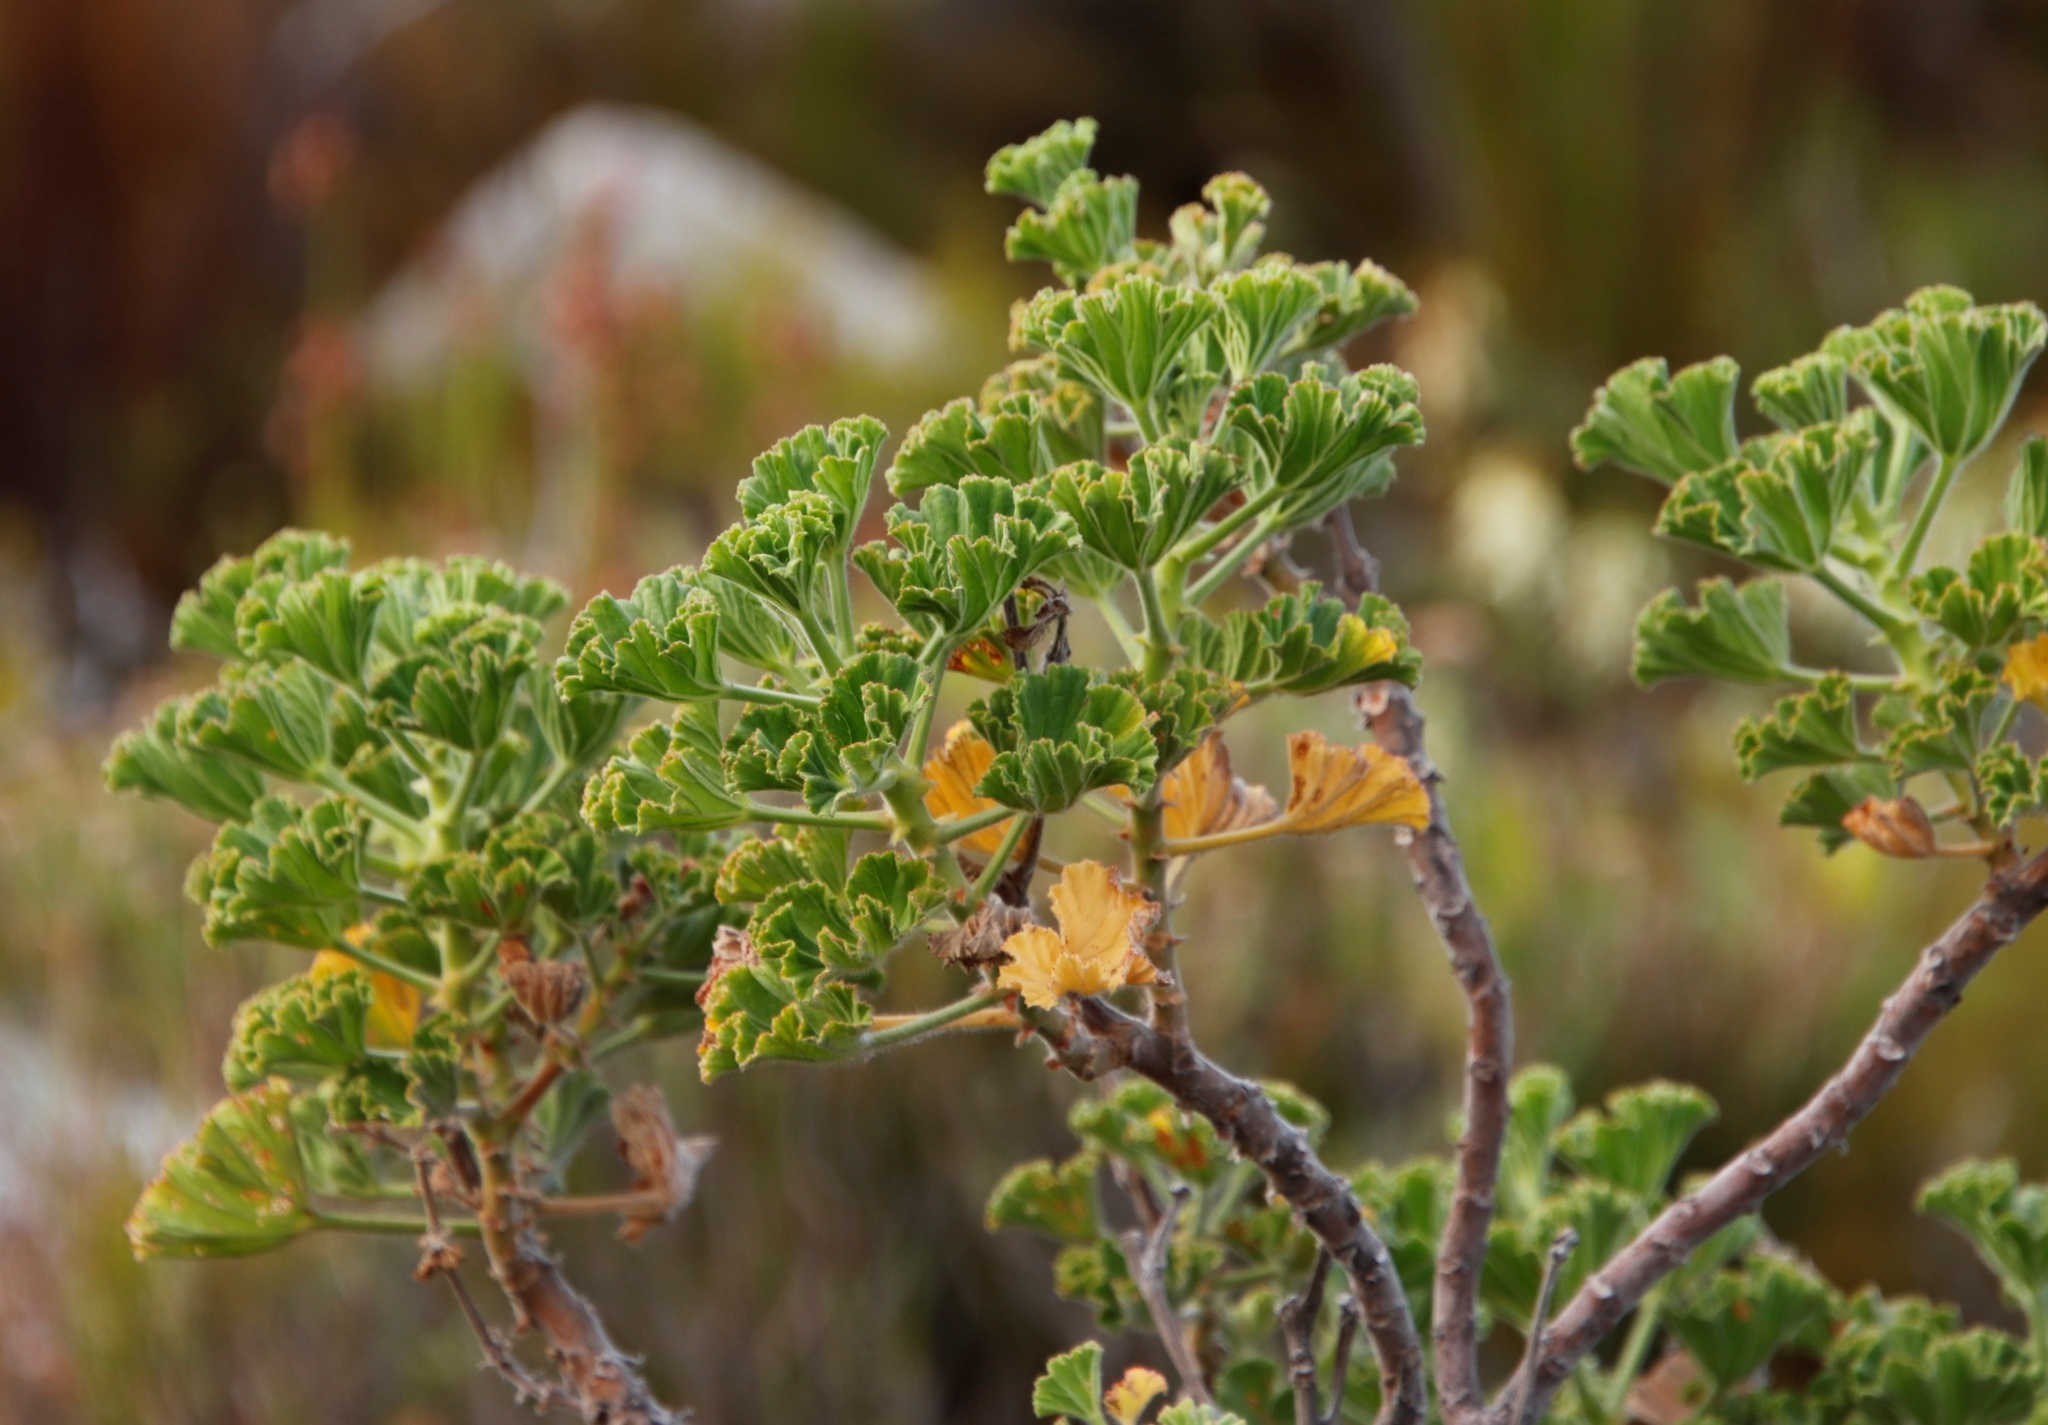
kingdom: Plantae
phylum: Tracheophyta
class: Magnoliopsida
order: Geraniales
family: Geraniaceae
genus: Pelargonium
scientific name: Pelargonium cucullatum
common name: Tree pelargonium
